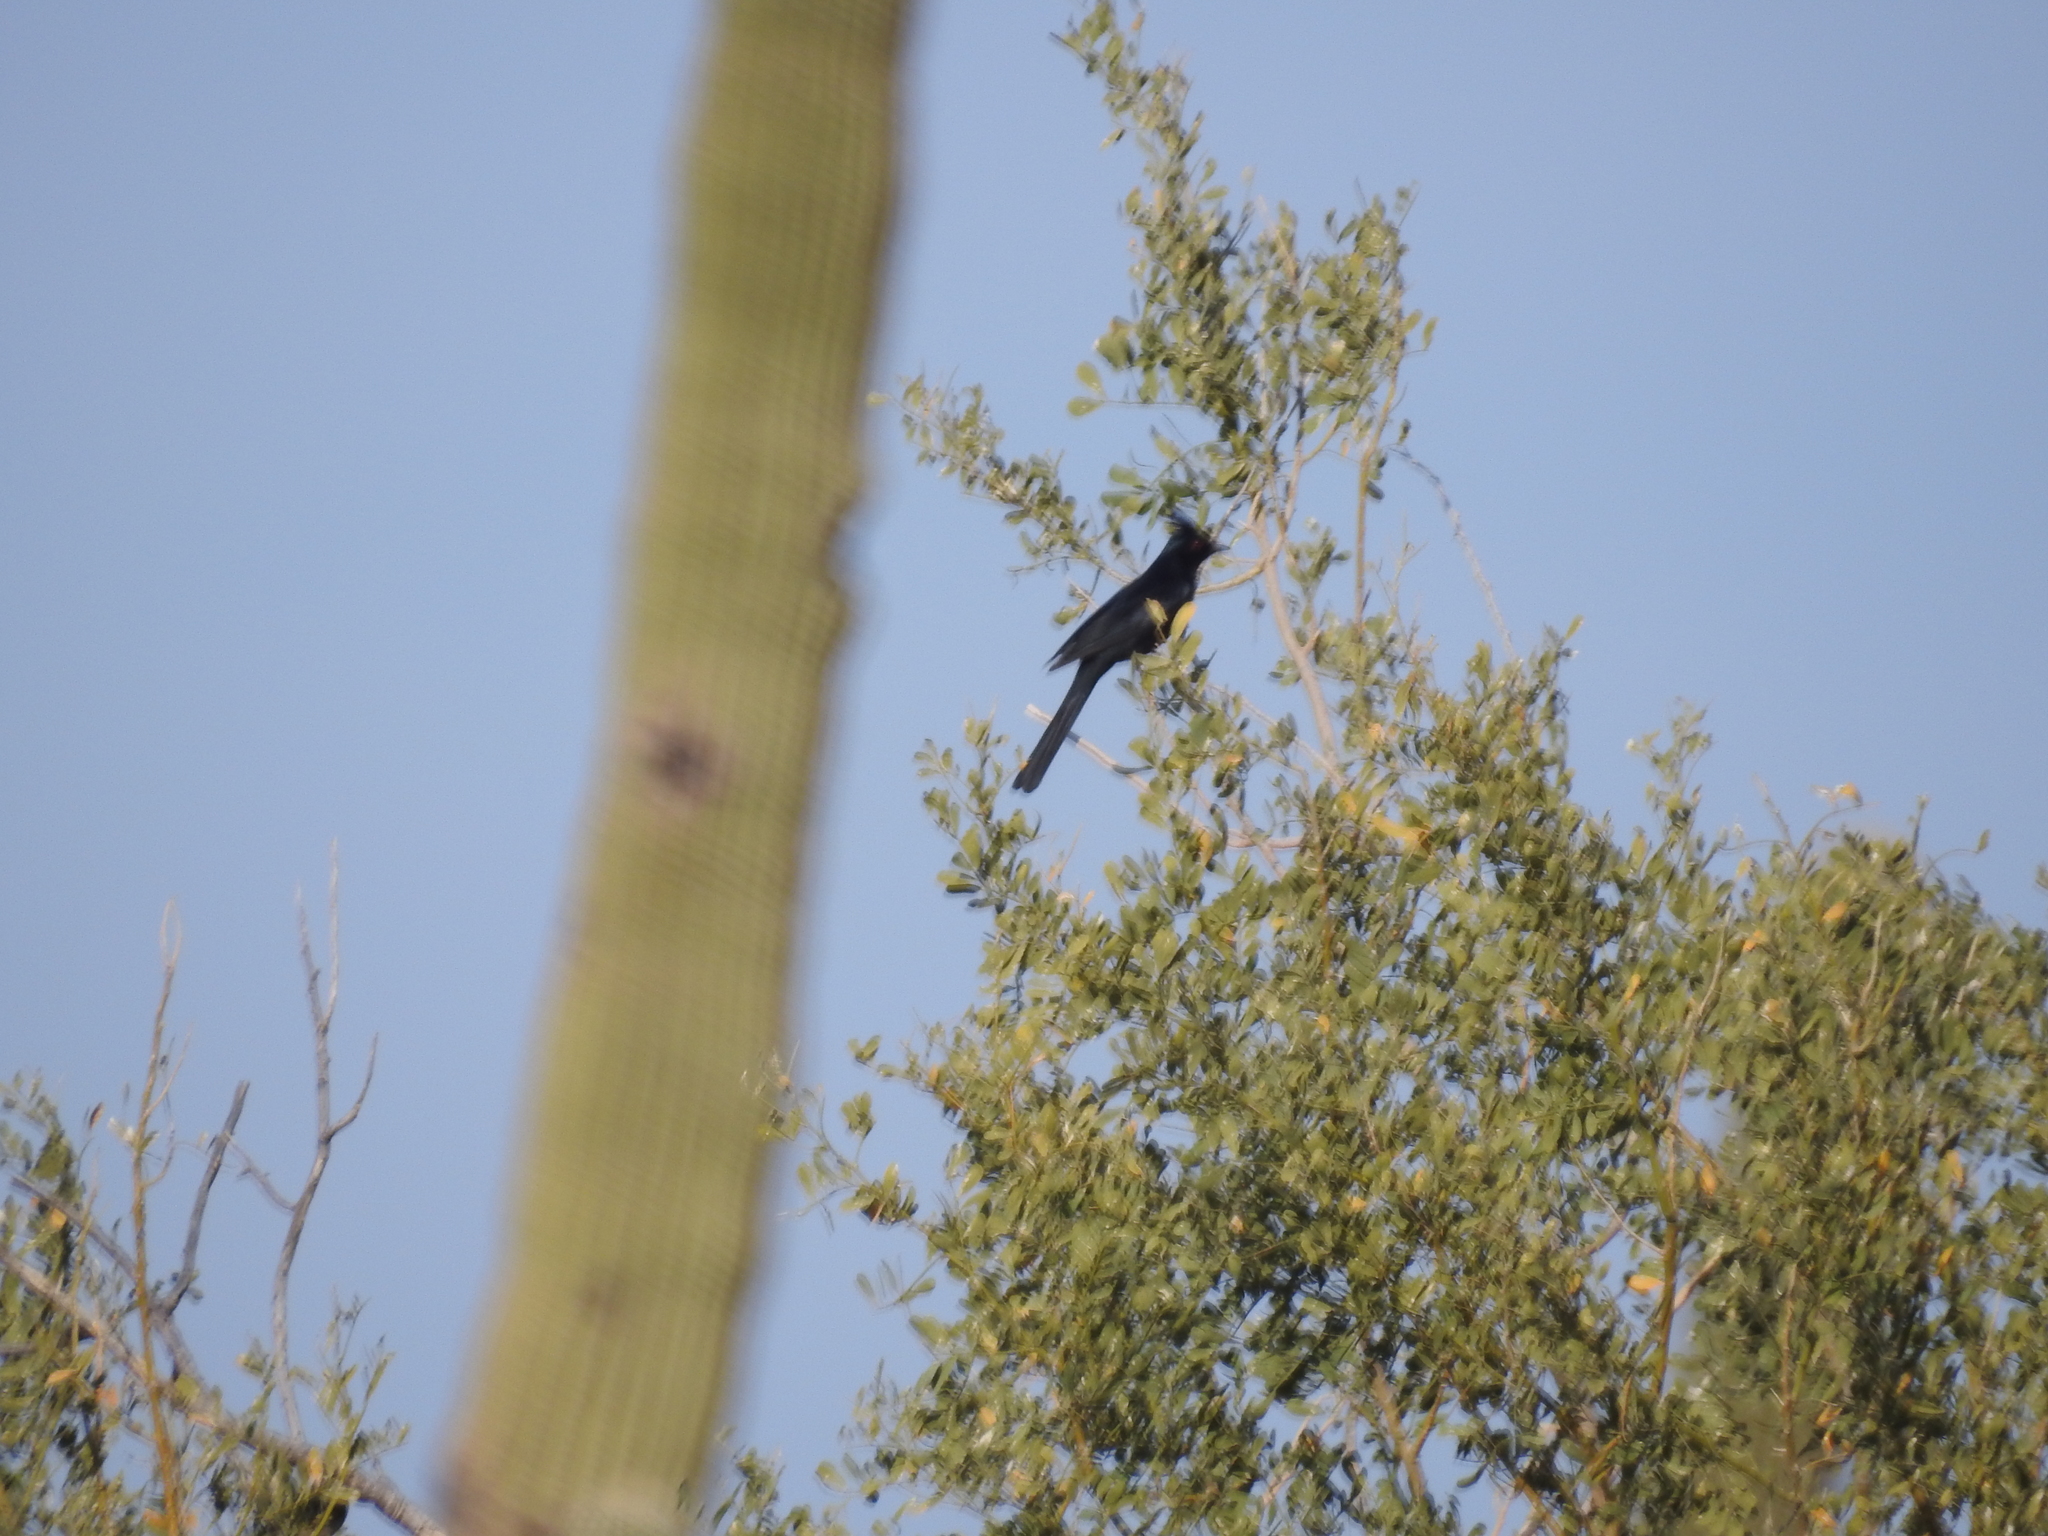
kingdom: Animalia
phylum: Chordata
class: Aves
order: Passeriformes
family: Ptilogonatidae
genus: Phainopepla
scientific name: Phainopepla nitens
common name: Phainopepla
